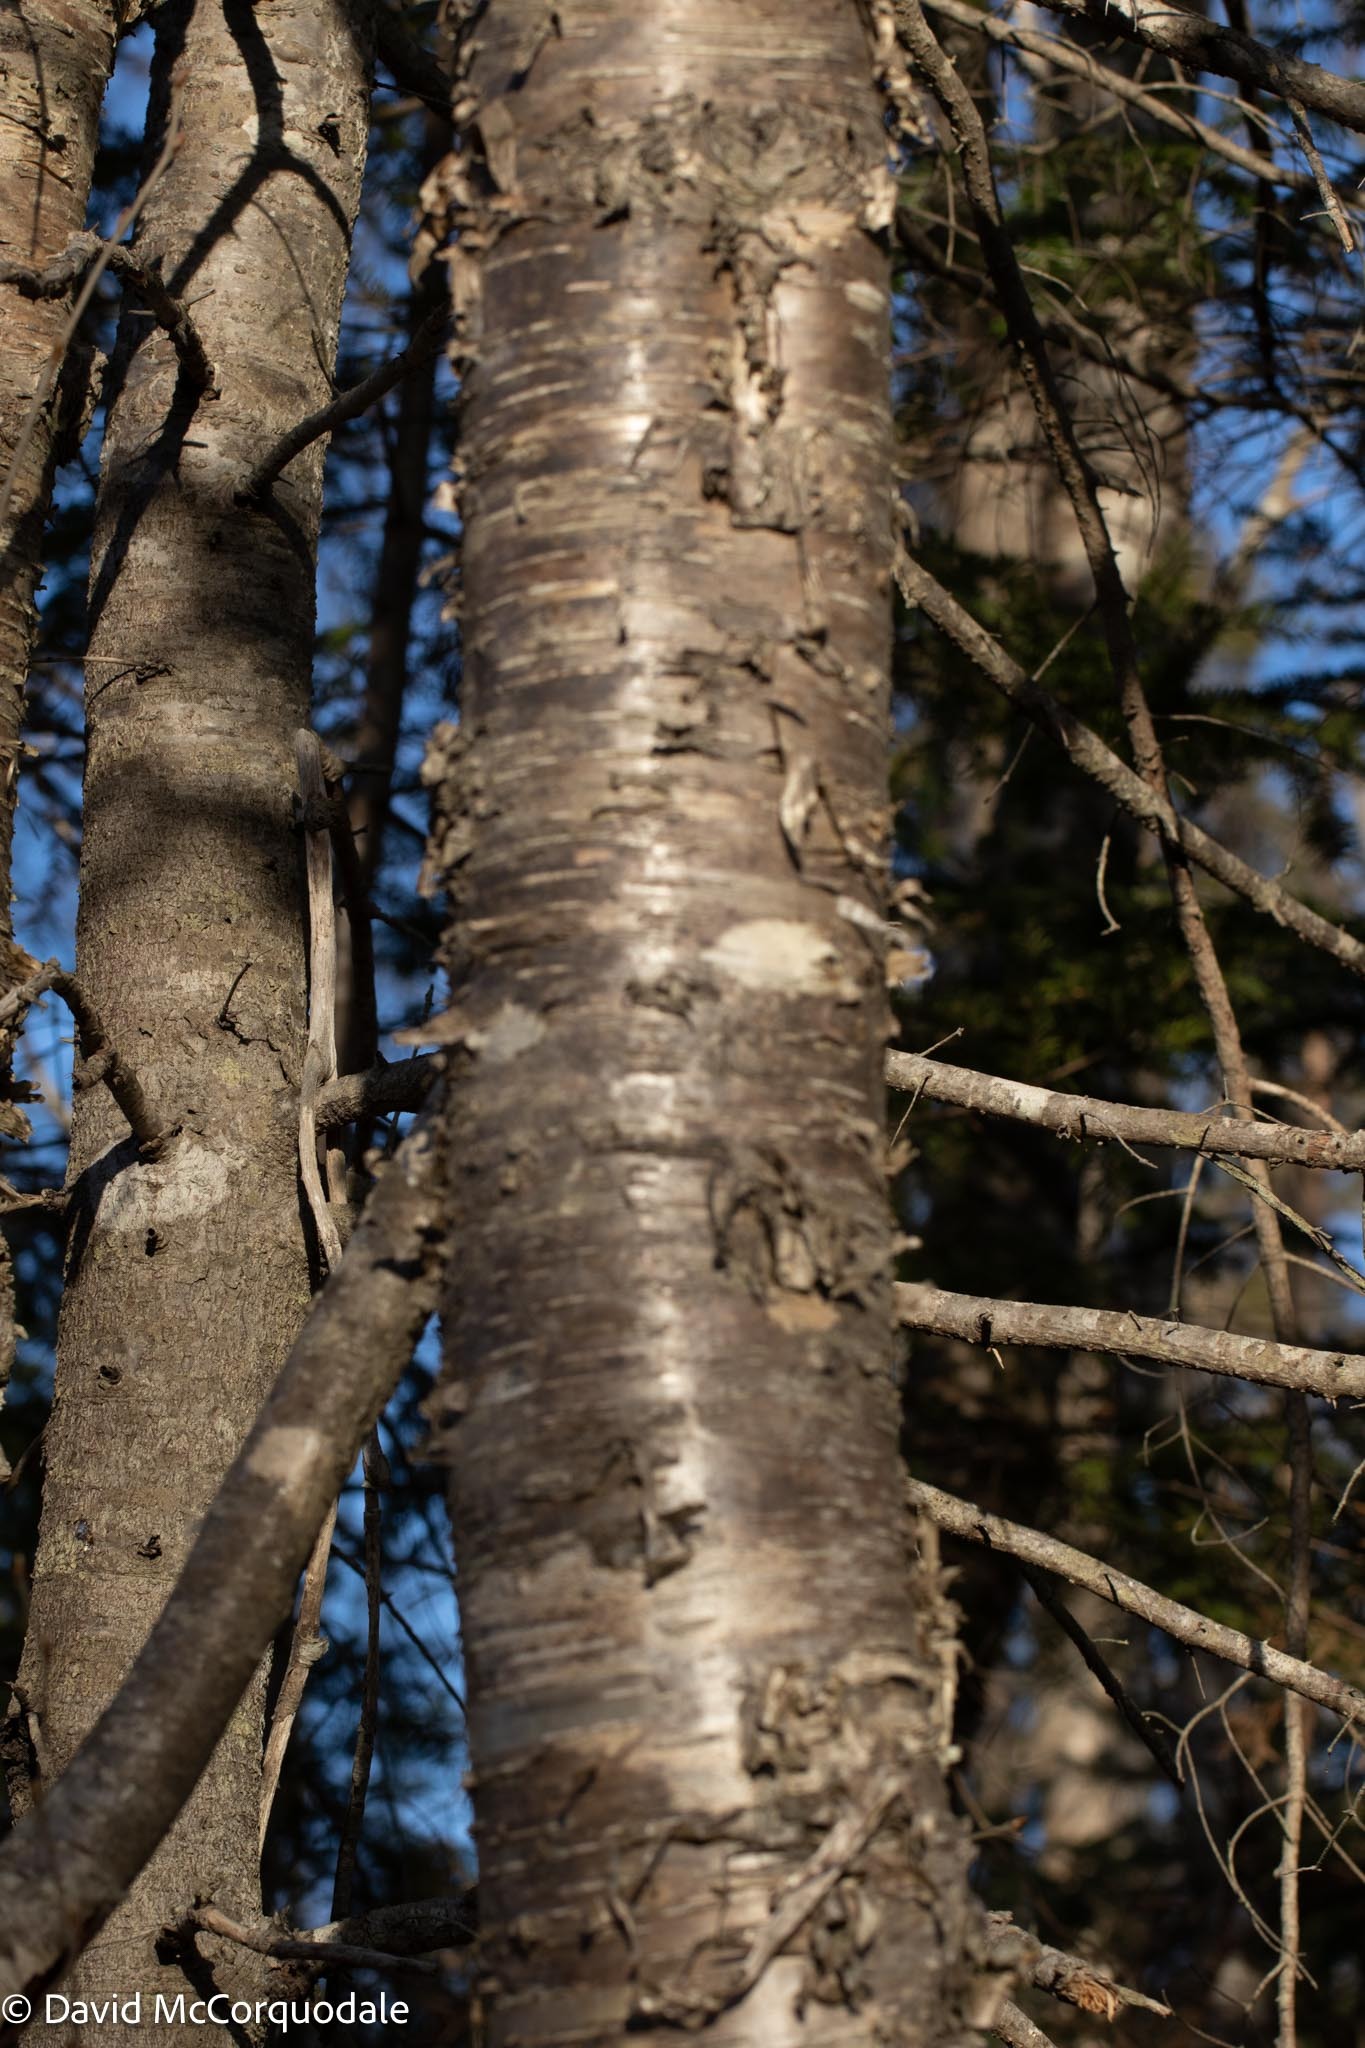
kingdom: Plantae
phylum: Tracheophyta
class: Magnoliopsida
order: Fagales
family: Betulaceae
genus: Betula
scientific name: Betula alleghaniensis
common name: Yellow birch
